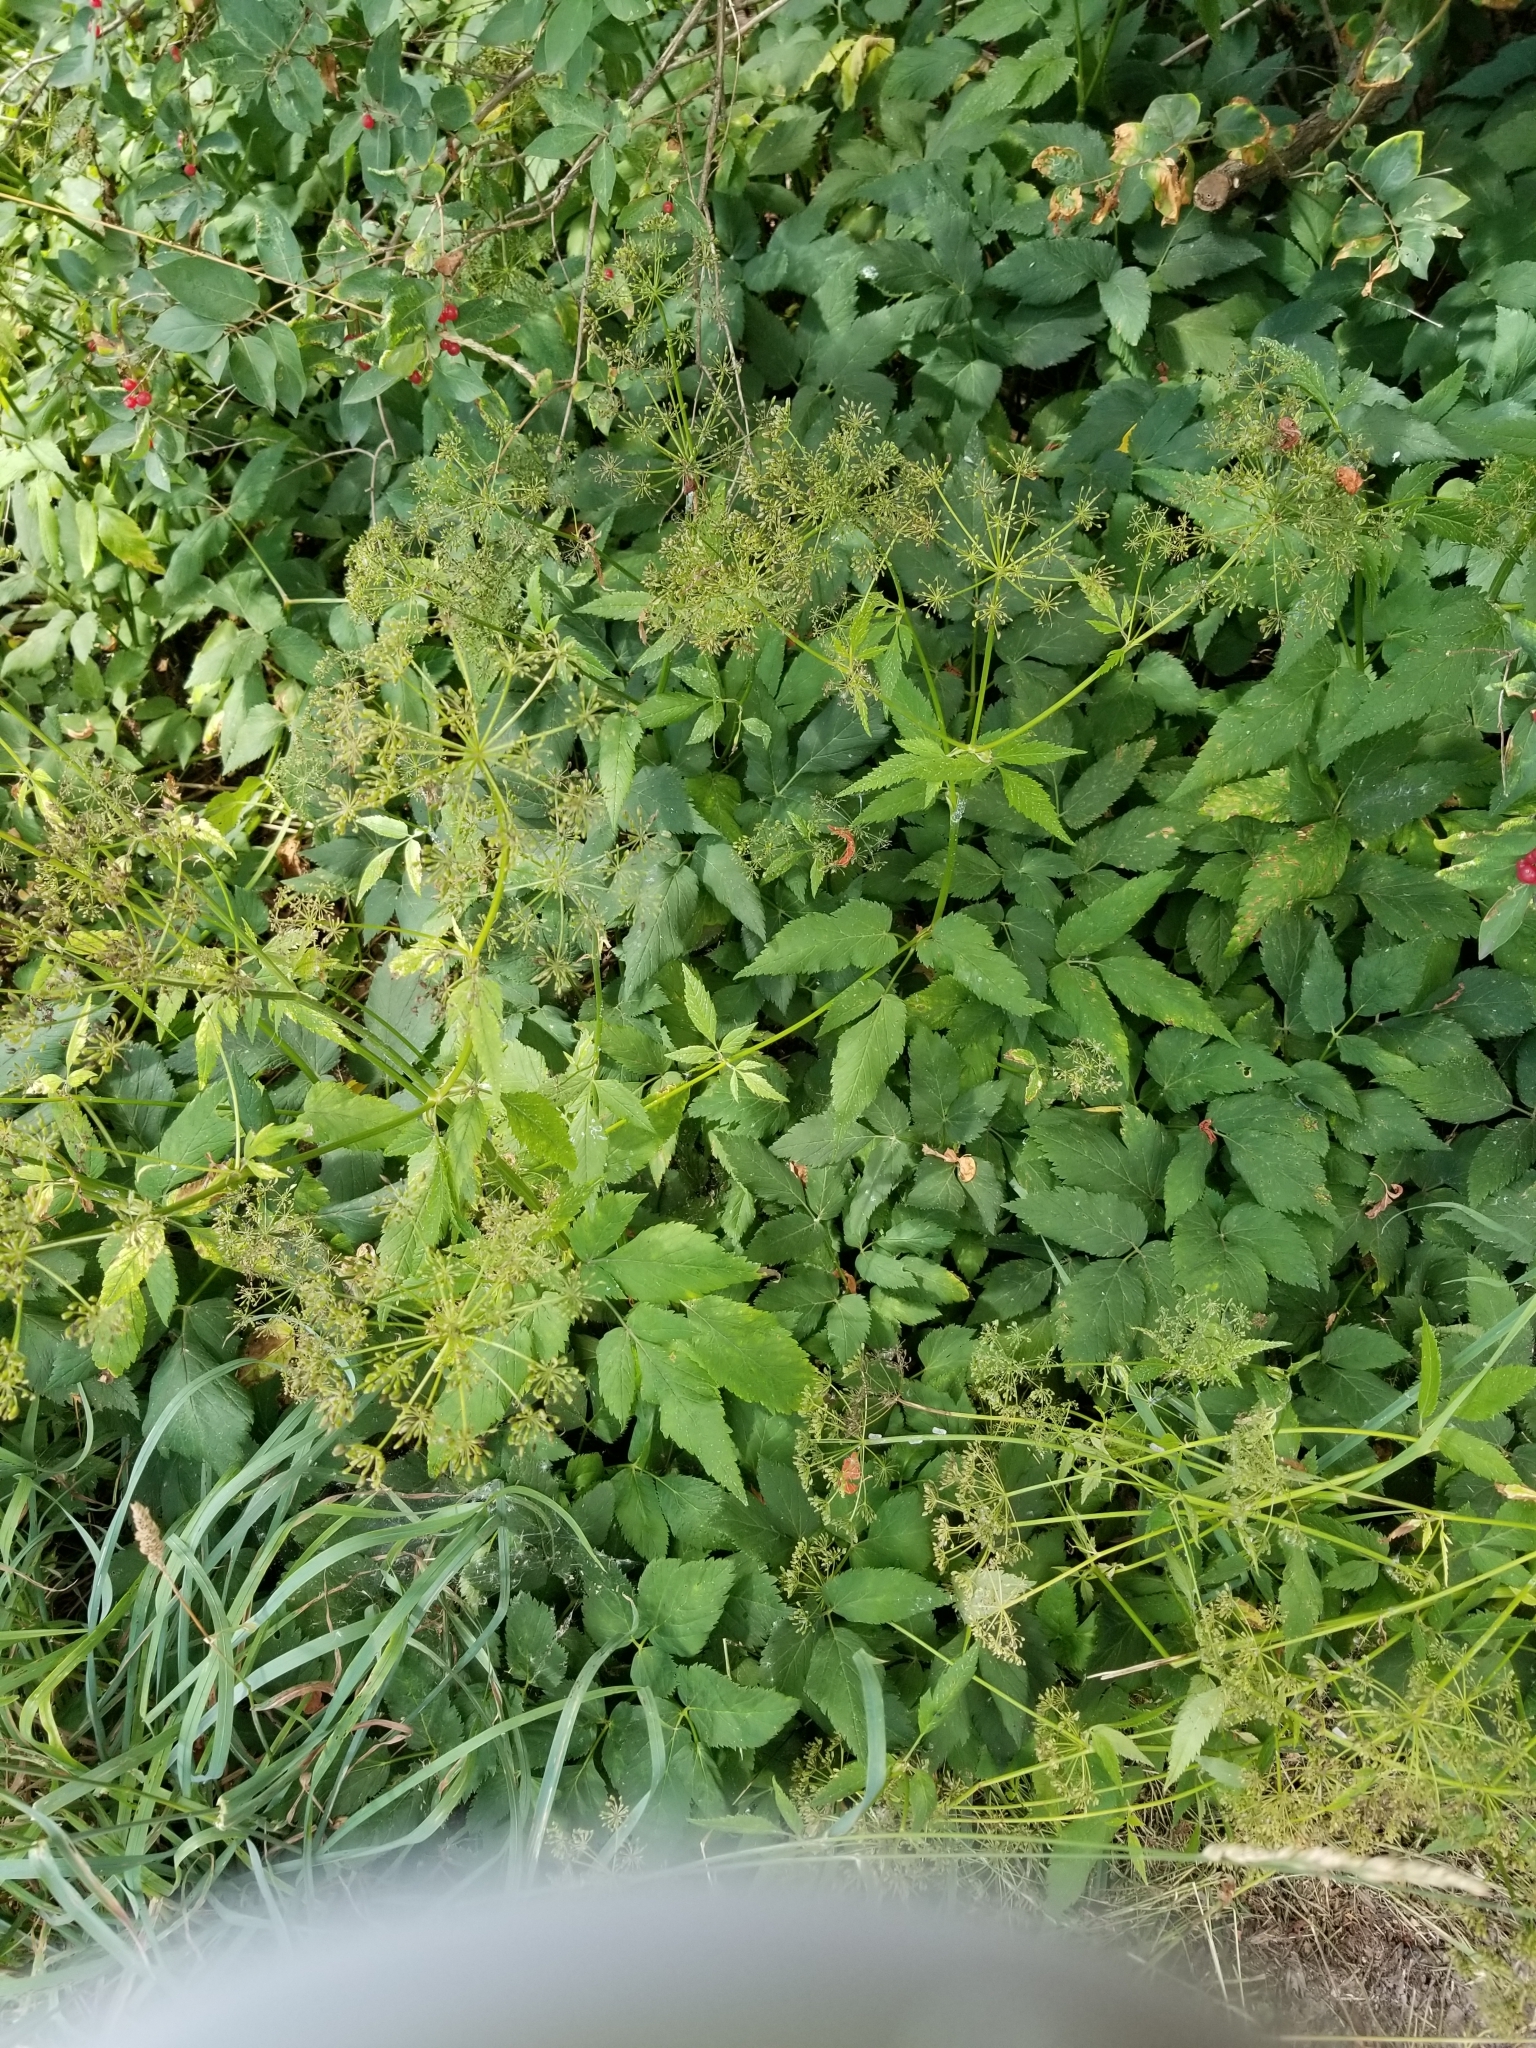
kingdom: Plantae
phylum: Tracheophyta
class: Magnoliopsida
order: Apiales
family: Apiaceae
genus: Aegopodium
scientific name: Aegopodium podagraria
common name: Ground-elder
